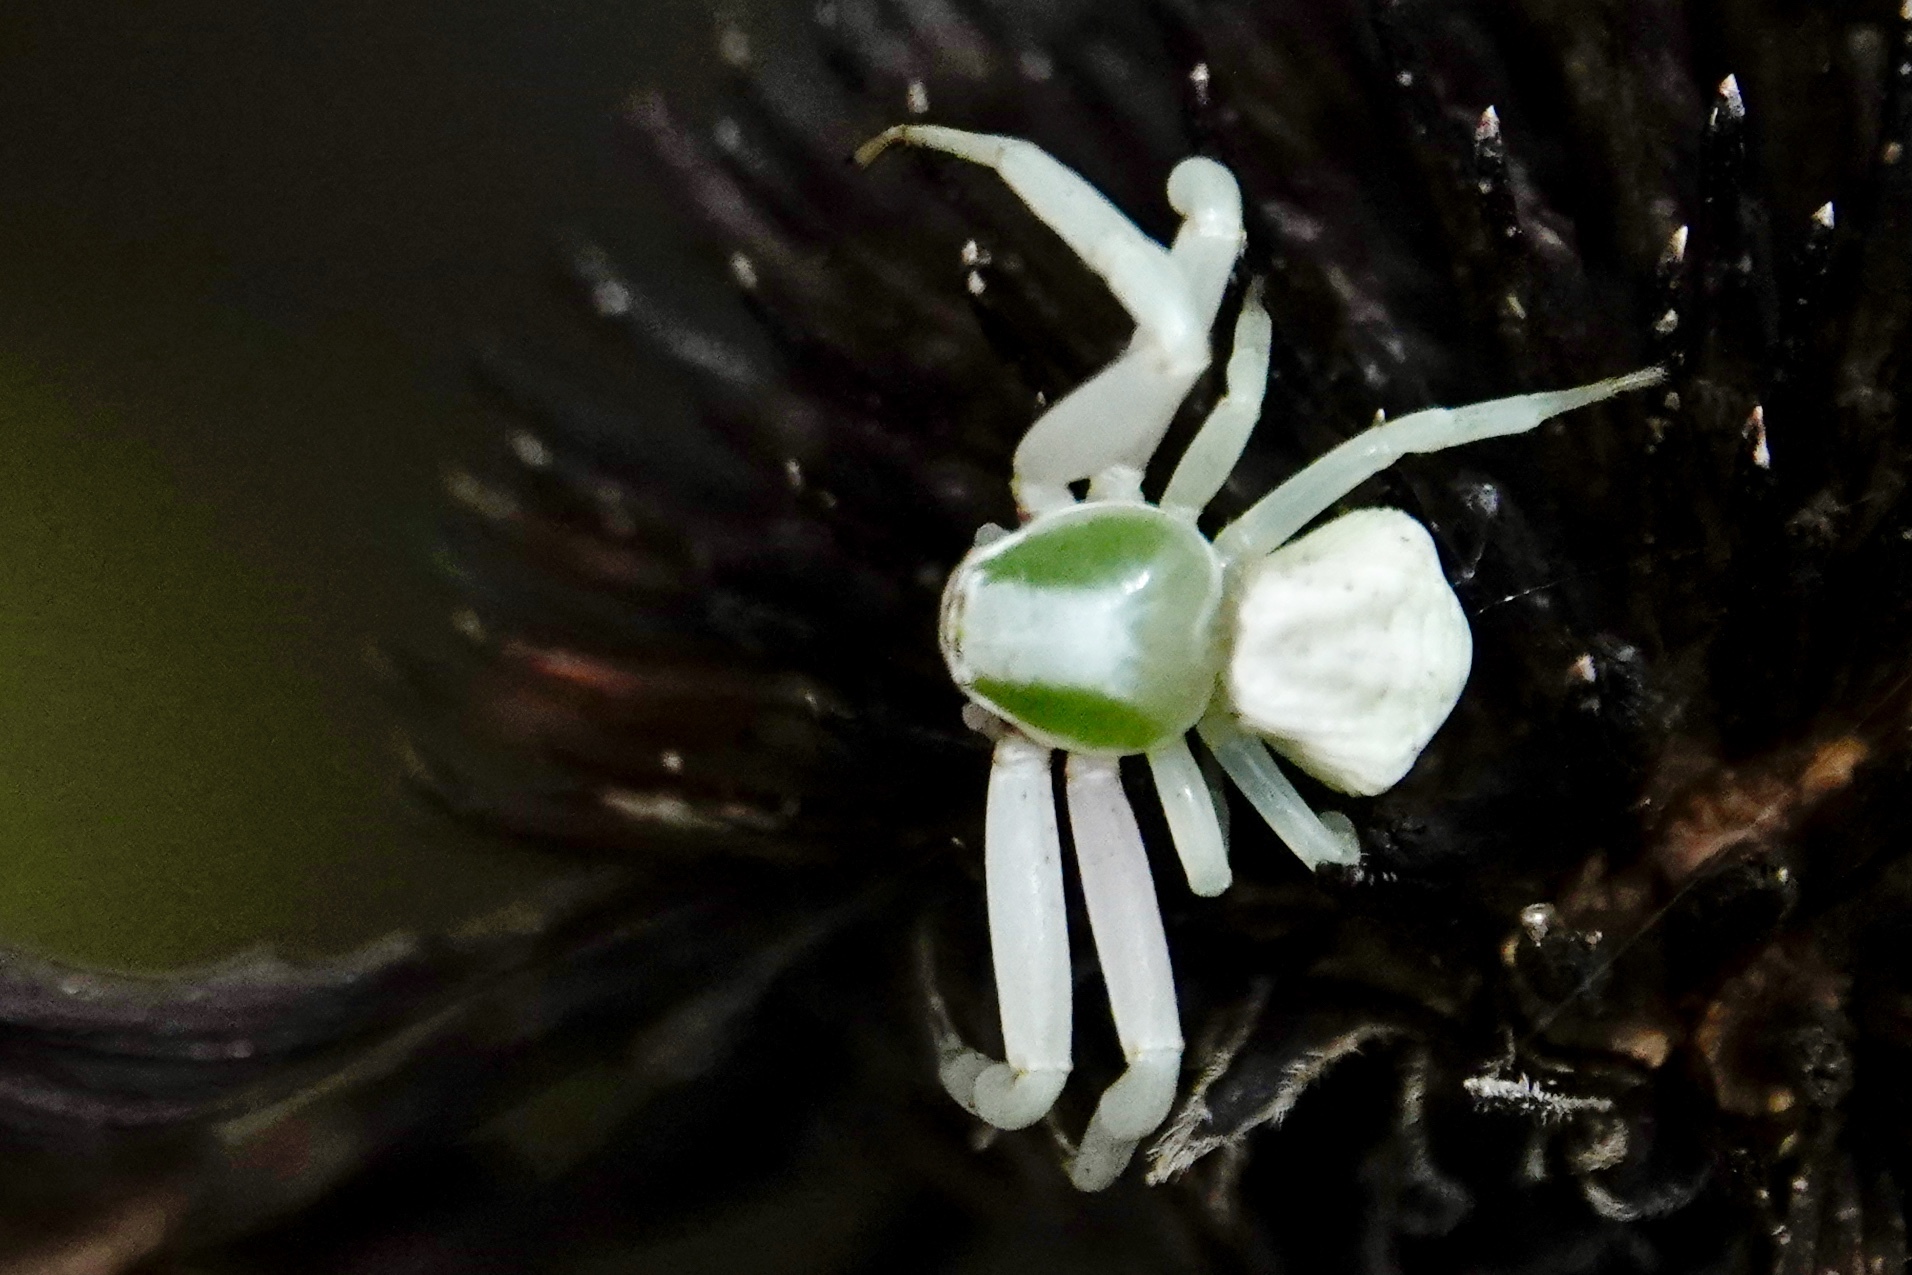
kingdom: Animalia
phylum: Arthropoda
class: Arachnida
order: Araneae
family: Thomisidae
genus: Misumenoides
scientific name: Misumenoides formosipes
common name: White-banded crab spider
